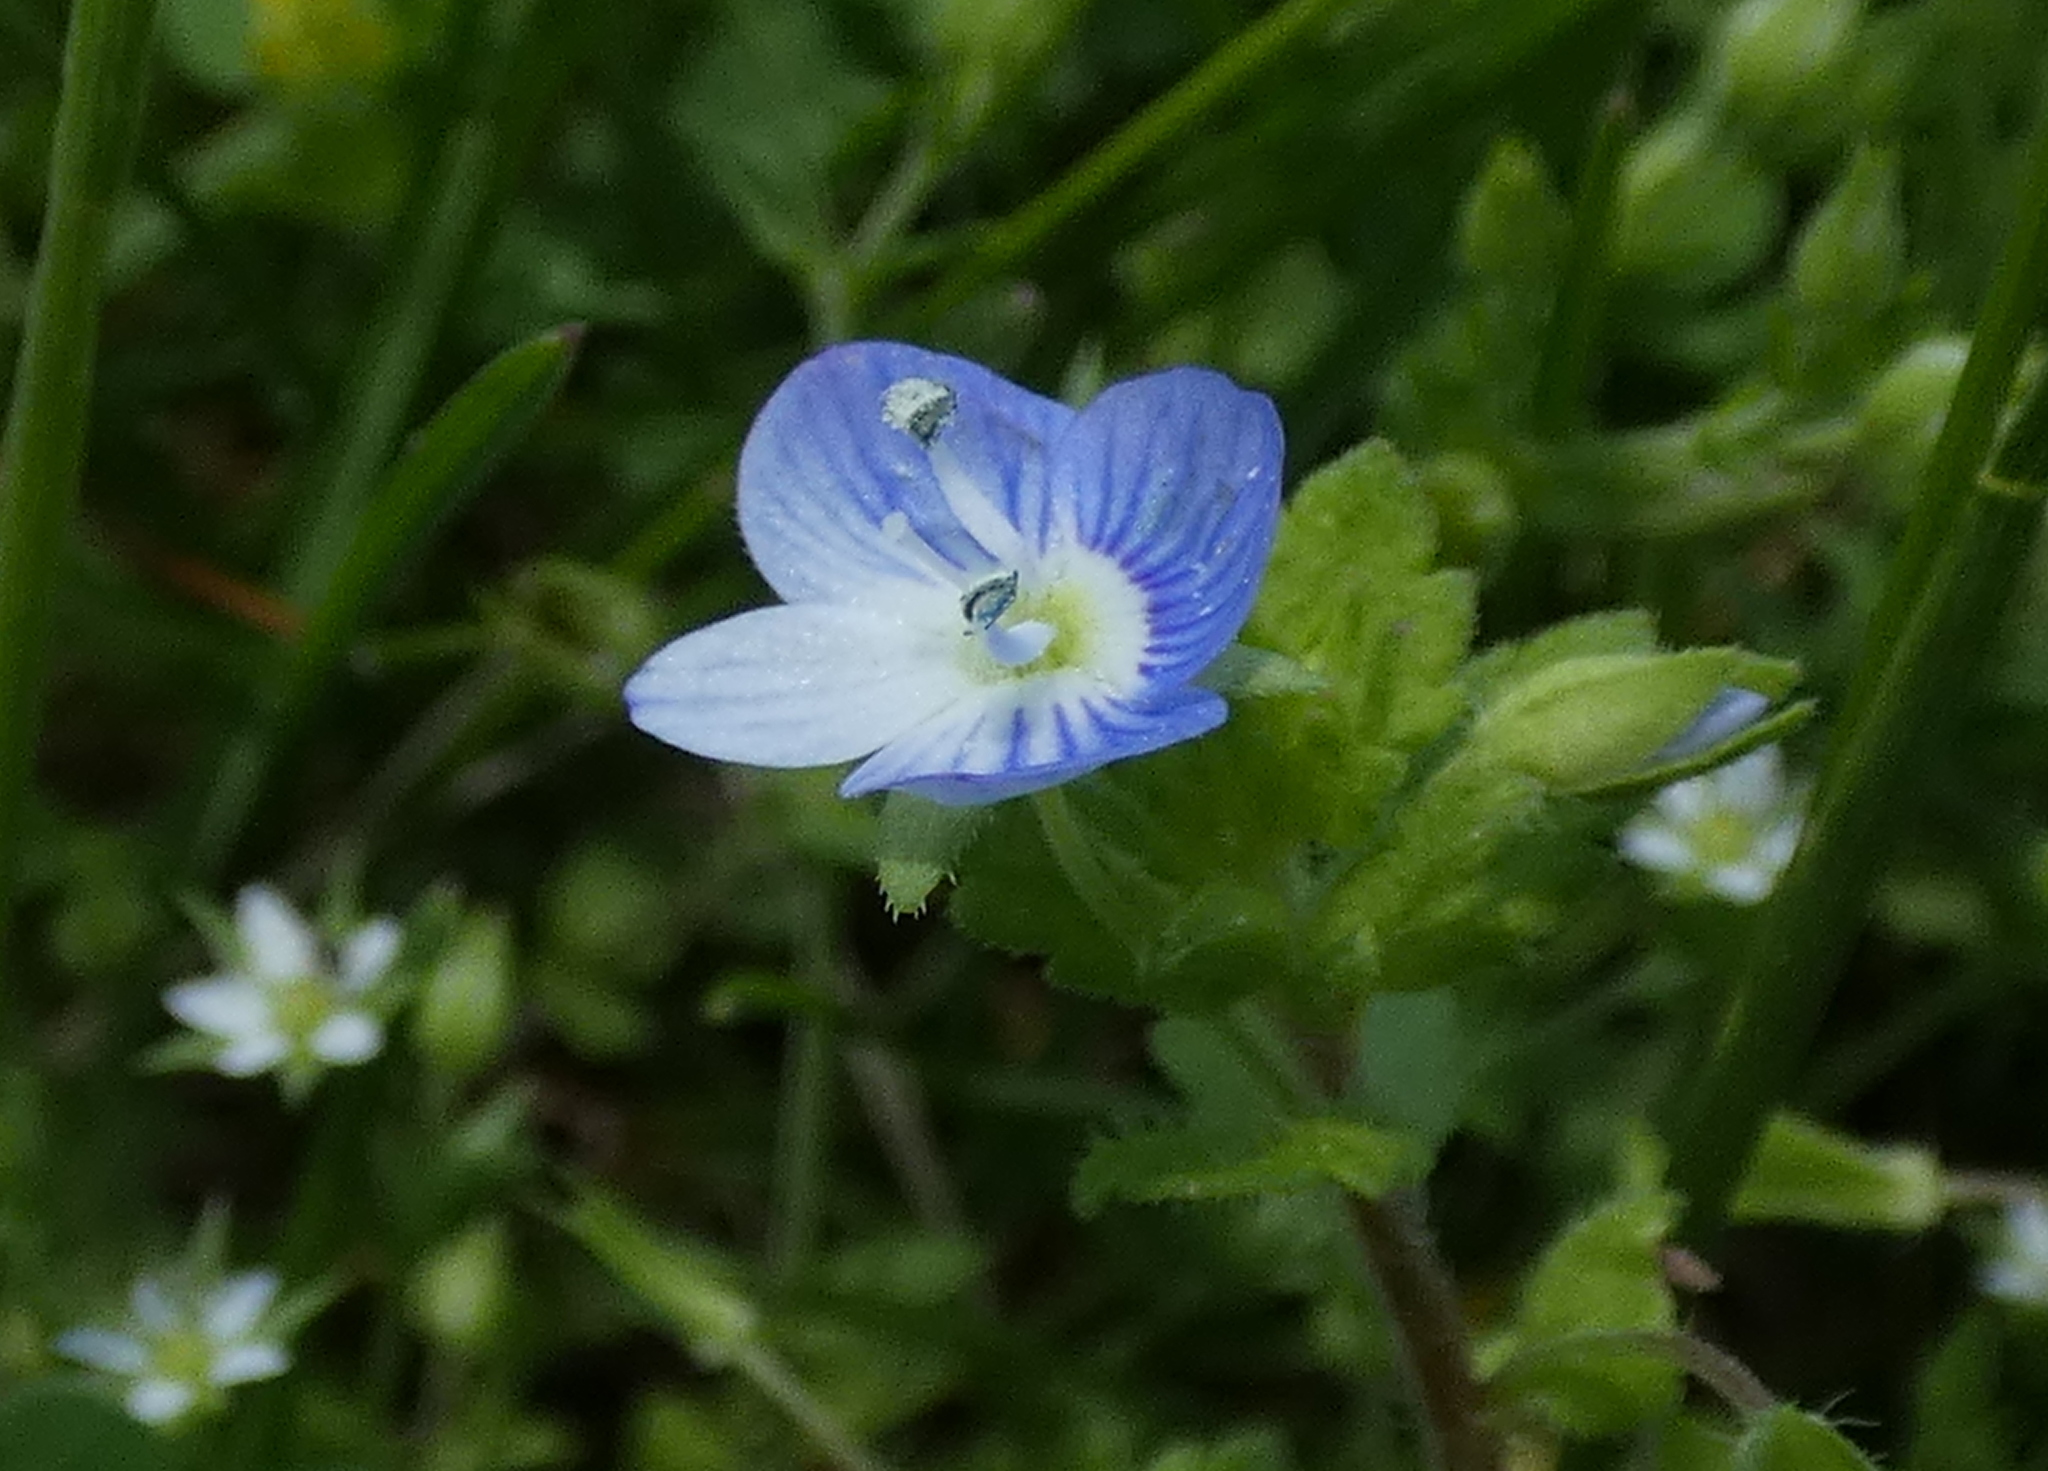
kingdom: Plantae
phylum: Tracheophyta
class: Magnoliopsida
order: Lamiales
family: Plantaginaceae
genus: Veronica
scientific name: Veronica persica
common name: Common field-speedwell
